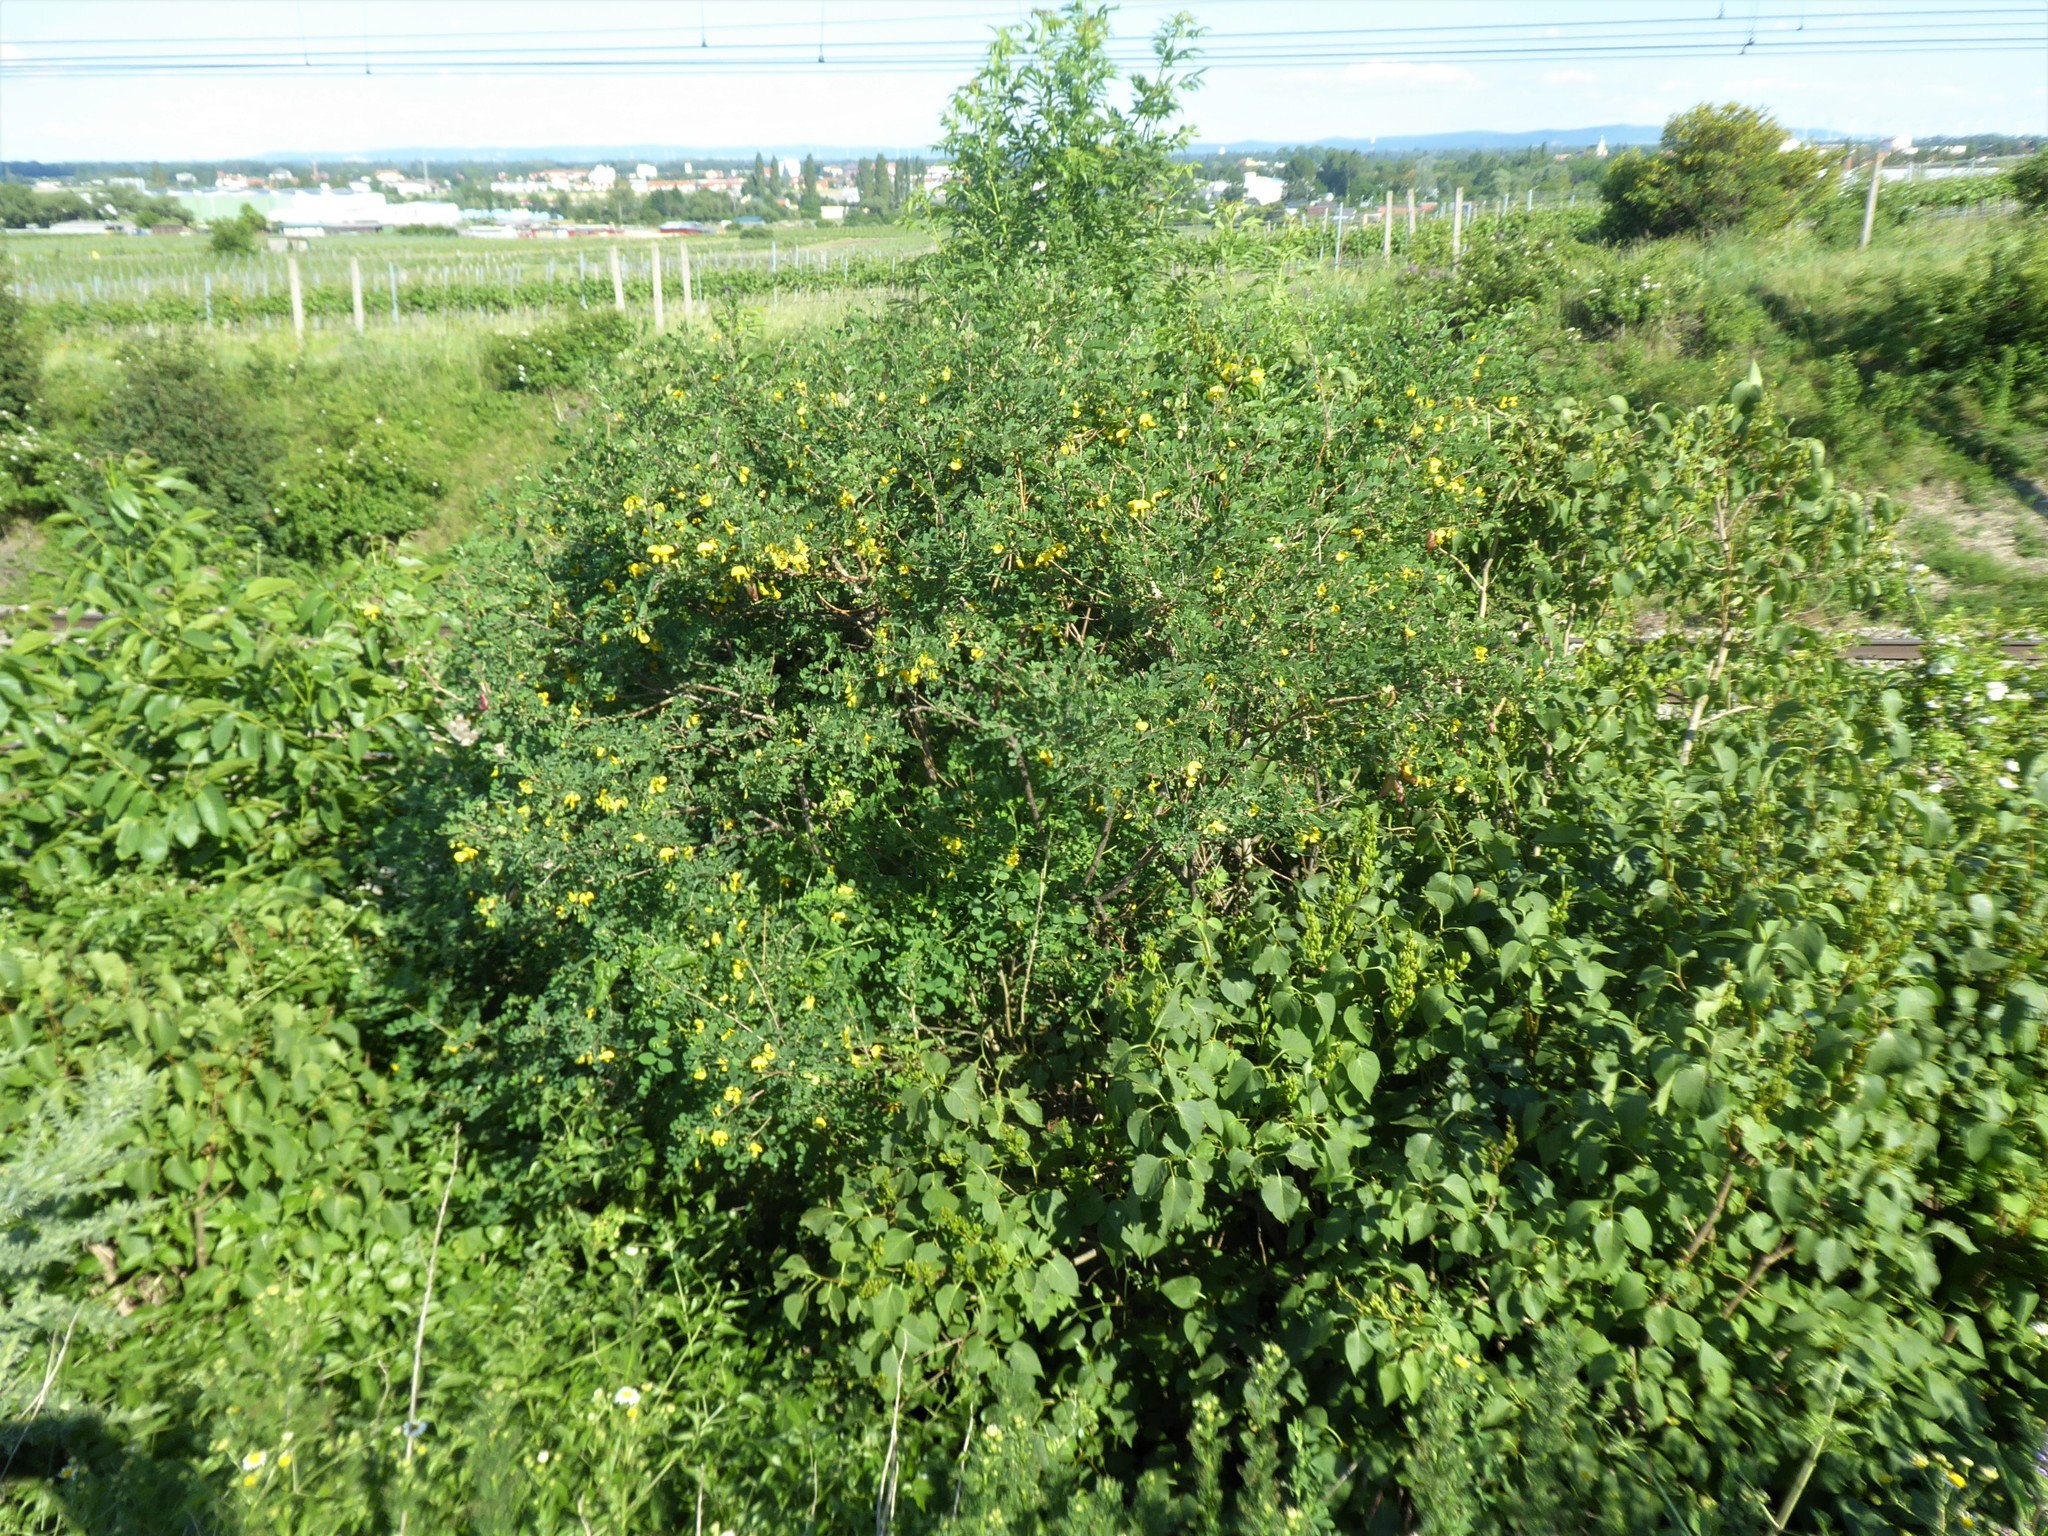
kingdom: Plantae
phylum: Tracheophyta
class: Magnoliopsida
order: Fabales
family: Fabaceae
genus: Colutea
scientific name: Colutea arborescens
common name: Bladder-senna
